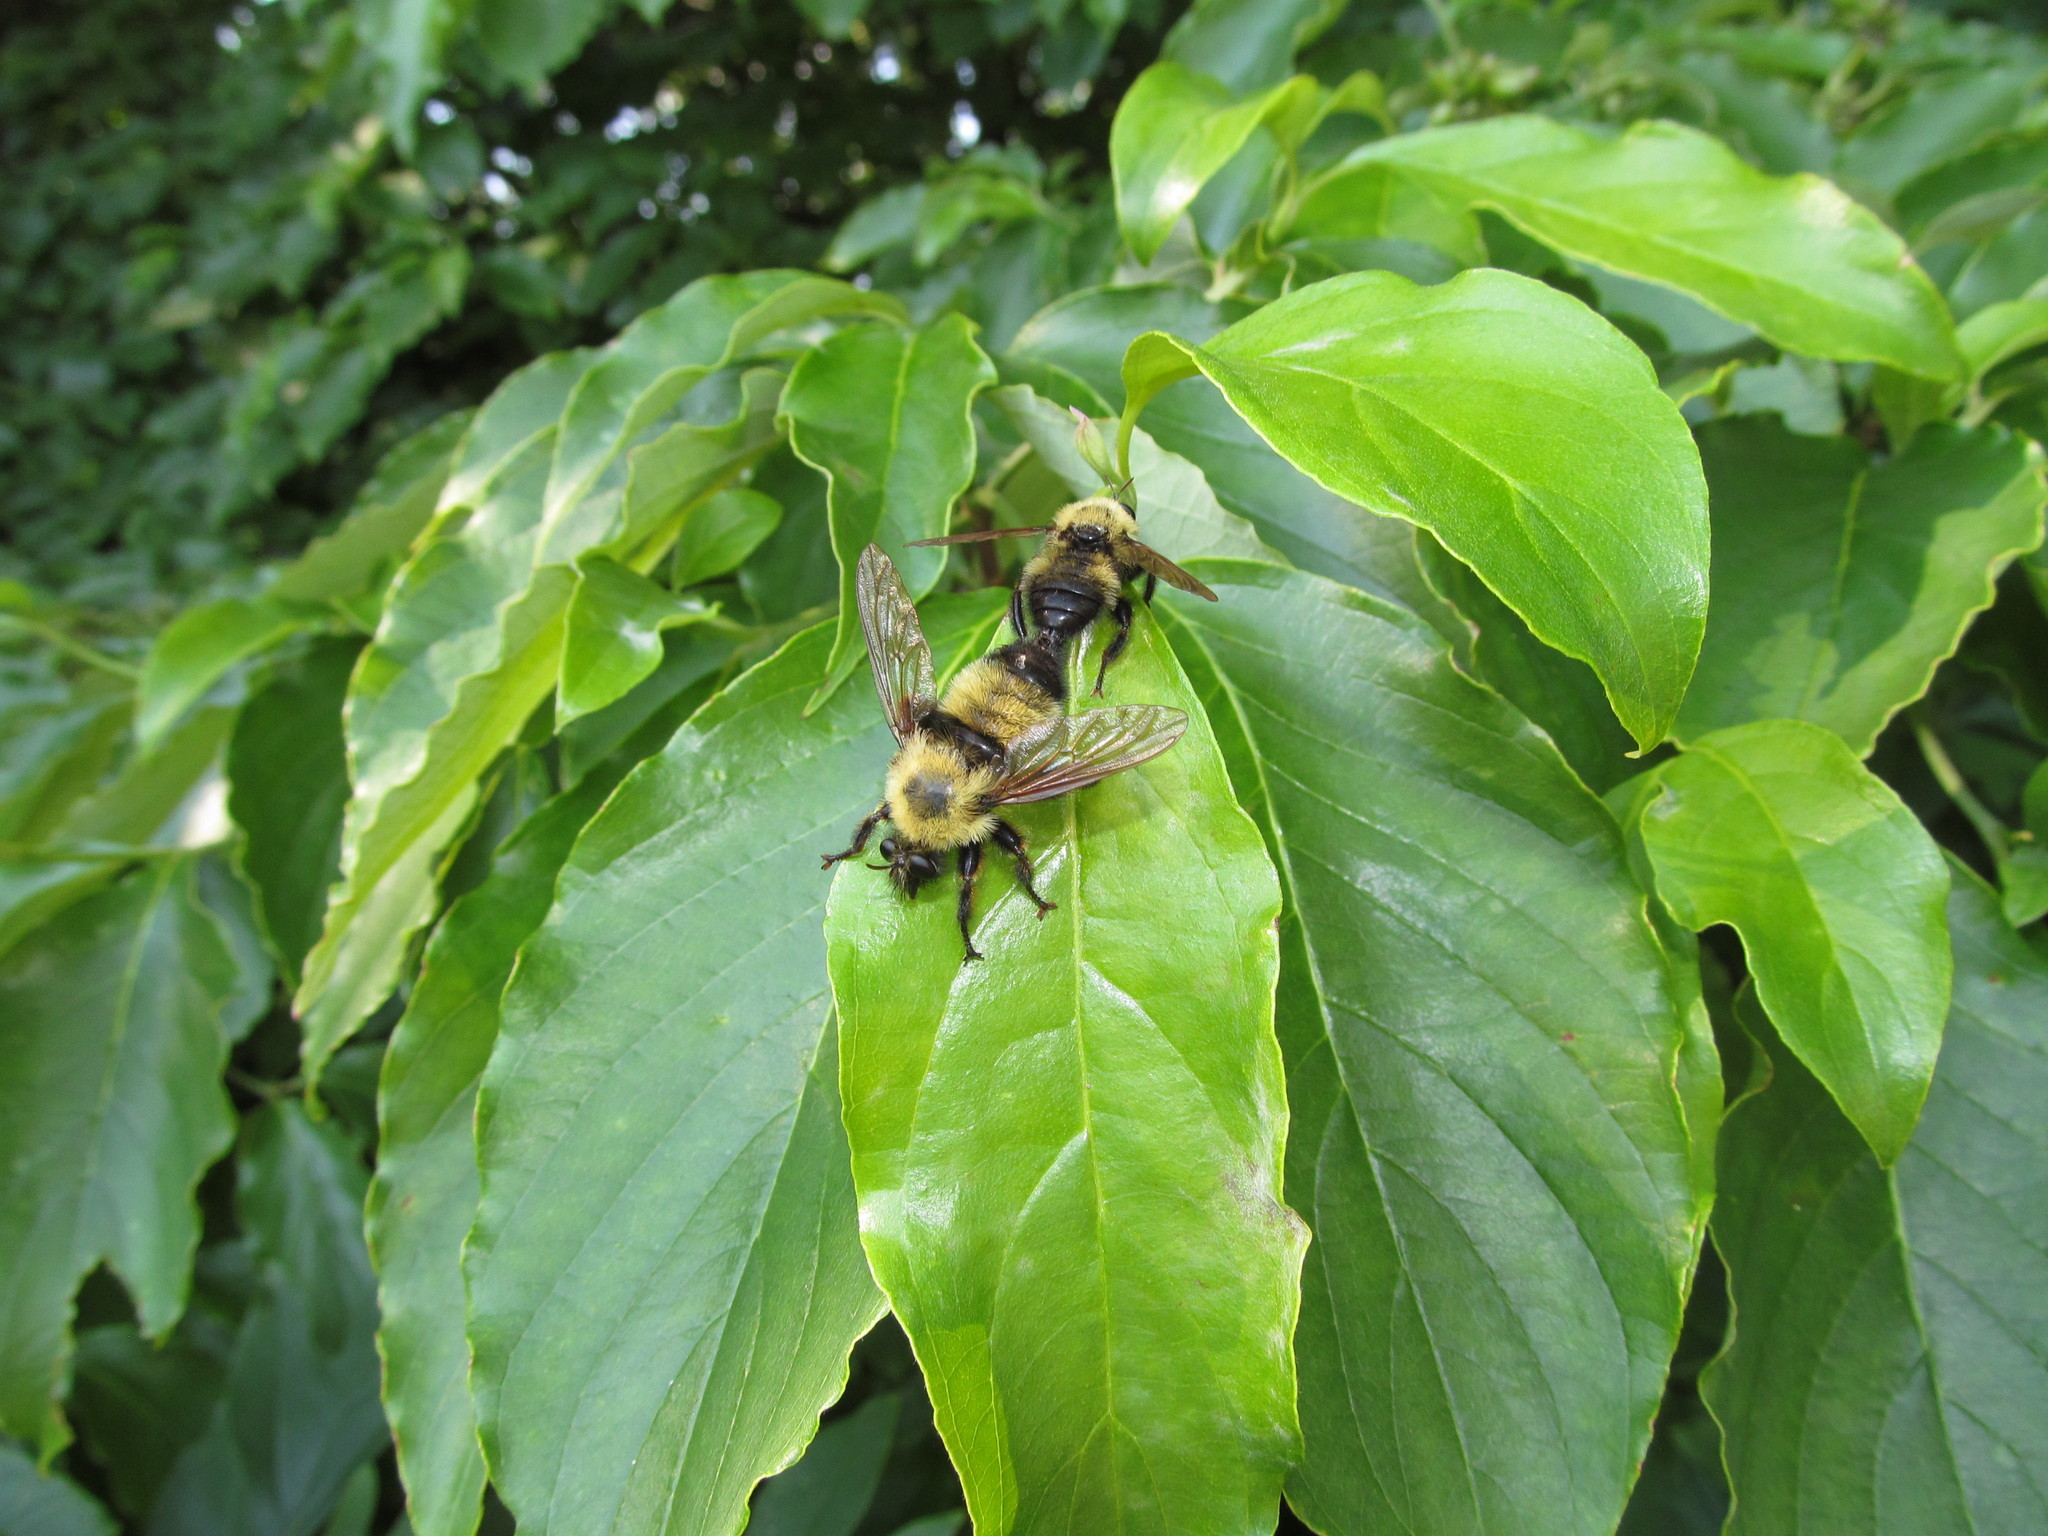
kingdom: Animalia
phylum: Arthropoda
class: Insecta
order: Diptera
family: Asilidae
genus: Laphria
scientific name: Laphria thoracica
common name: Bumble bee mimic robber fly
